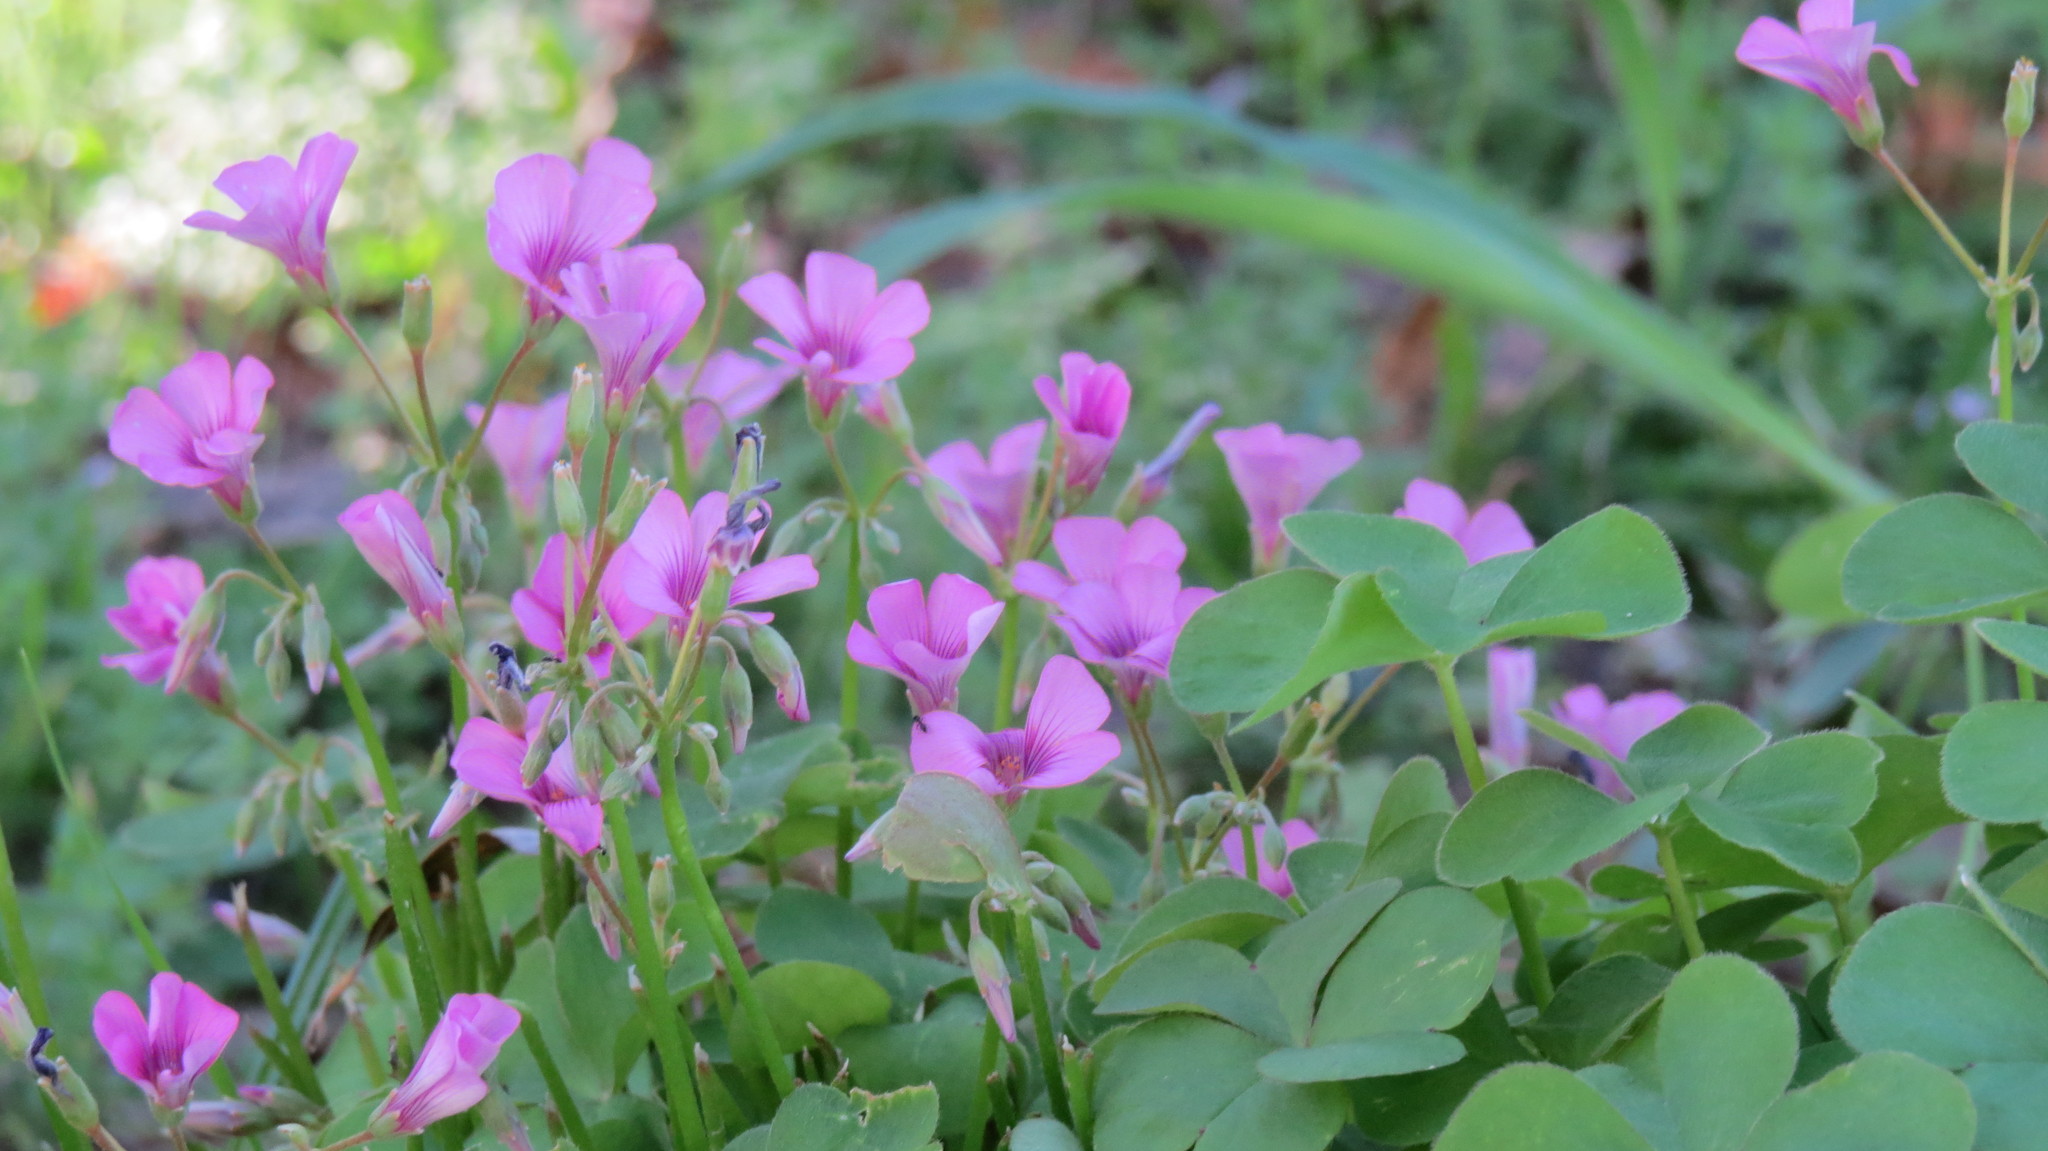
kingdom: Plantae
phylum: Tracheophyta
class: Magnoliopsida
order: Oxalidales
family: Oxalidaceae
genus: Oxalis
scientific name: Oxalis articulata
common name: Pink-sorrel
